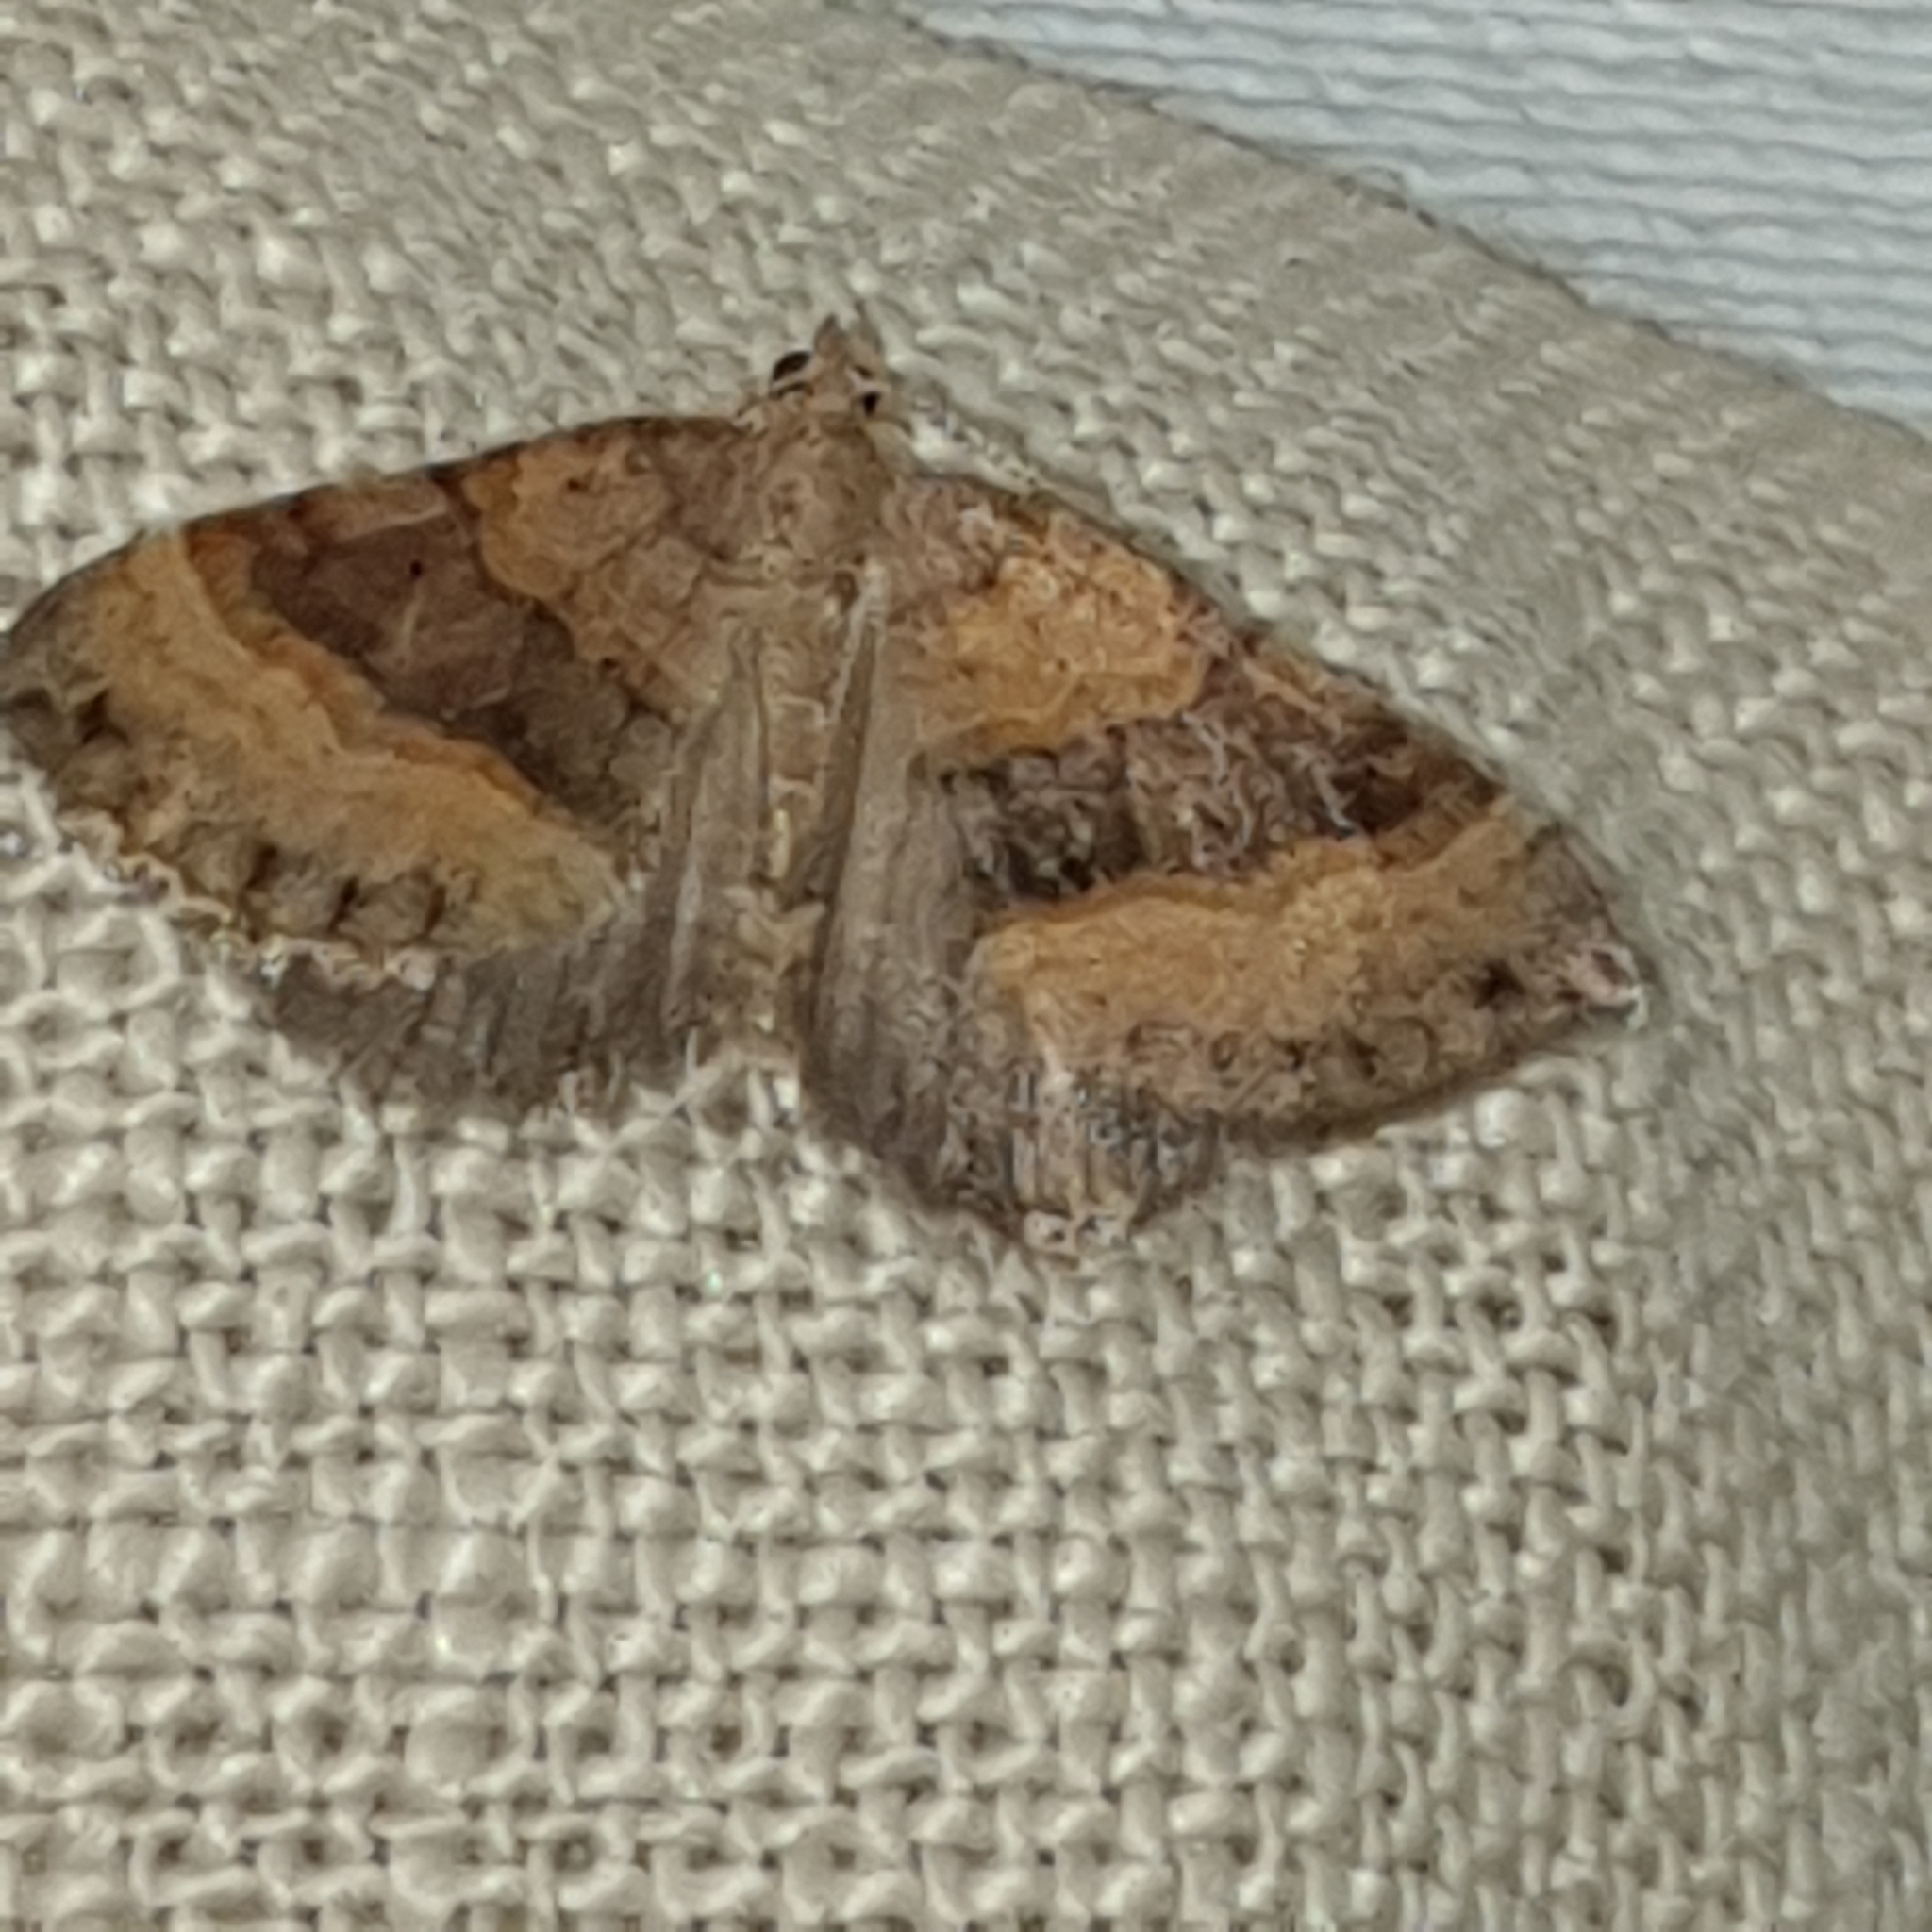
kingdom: Animalia
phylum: Arthropoda
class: Insecta
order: Lepidoptera
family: Geometridae
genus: Scotopteryx
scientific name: Scotopteryx chenopodiata
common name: Shaded broad-bar
